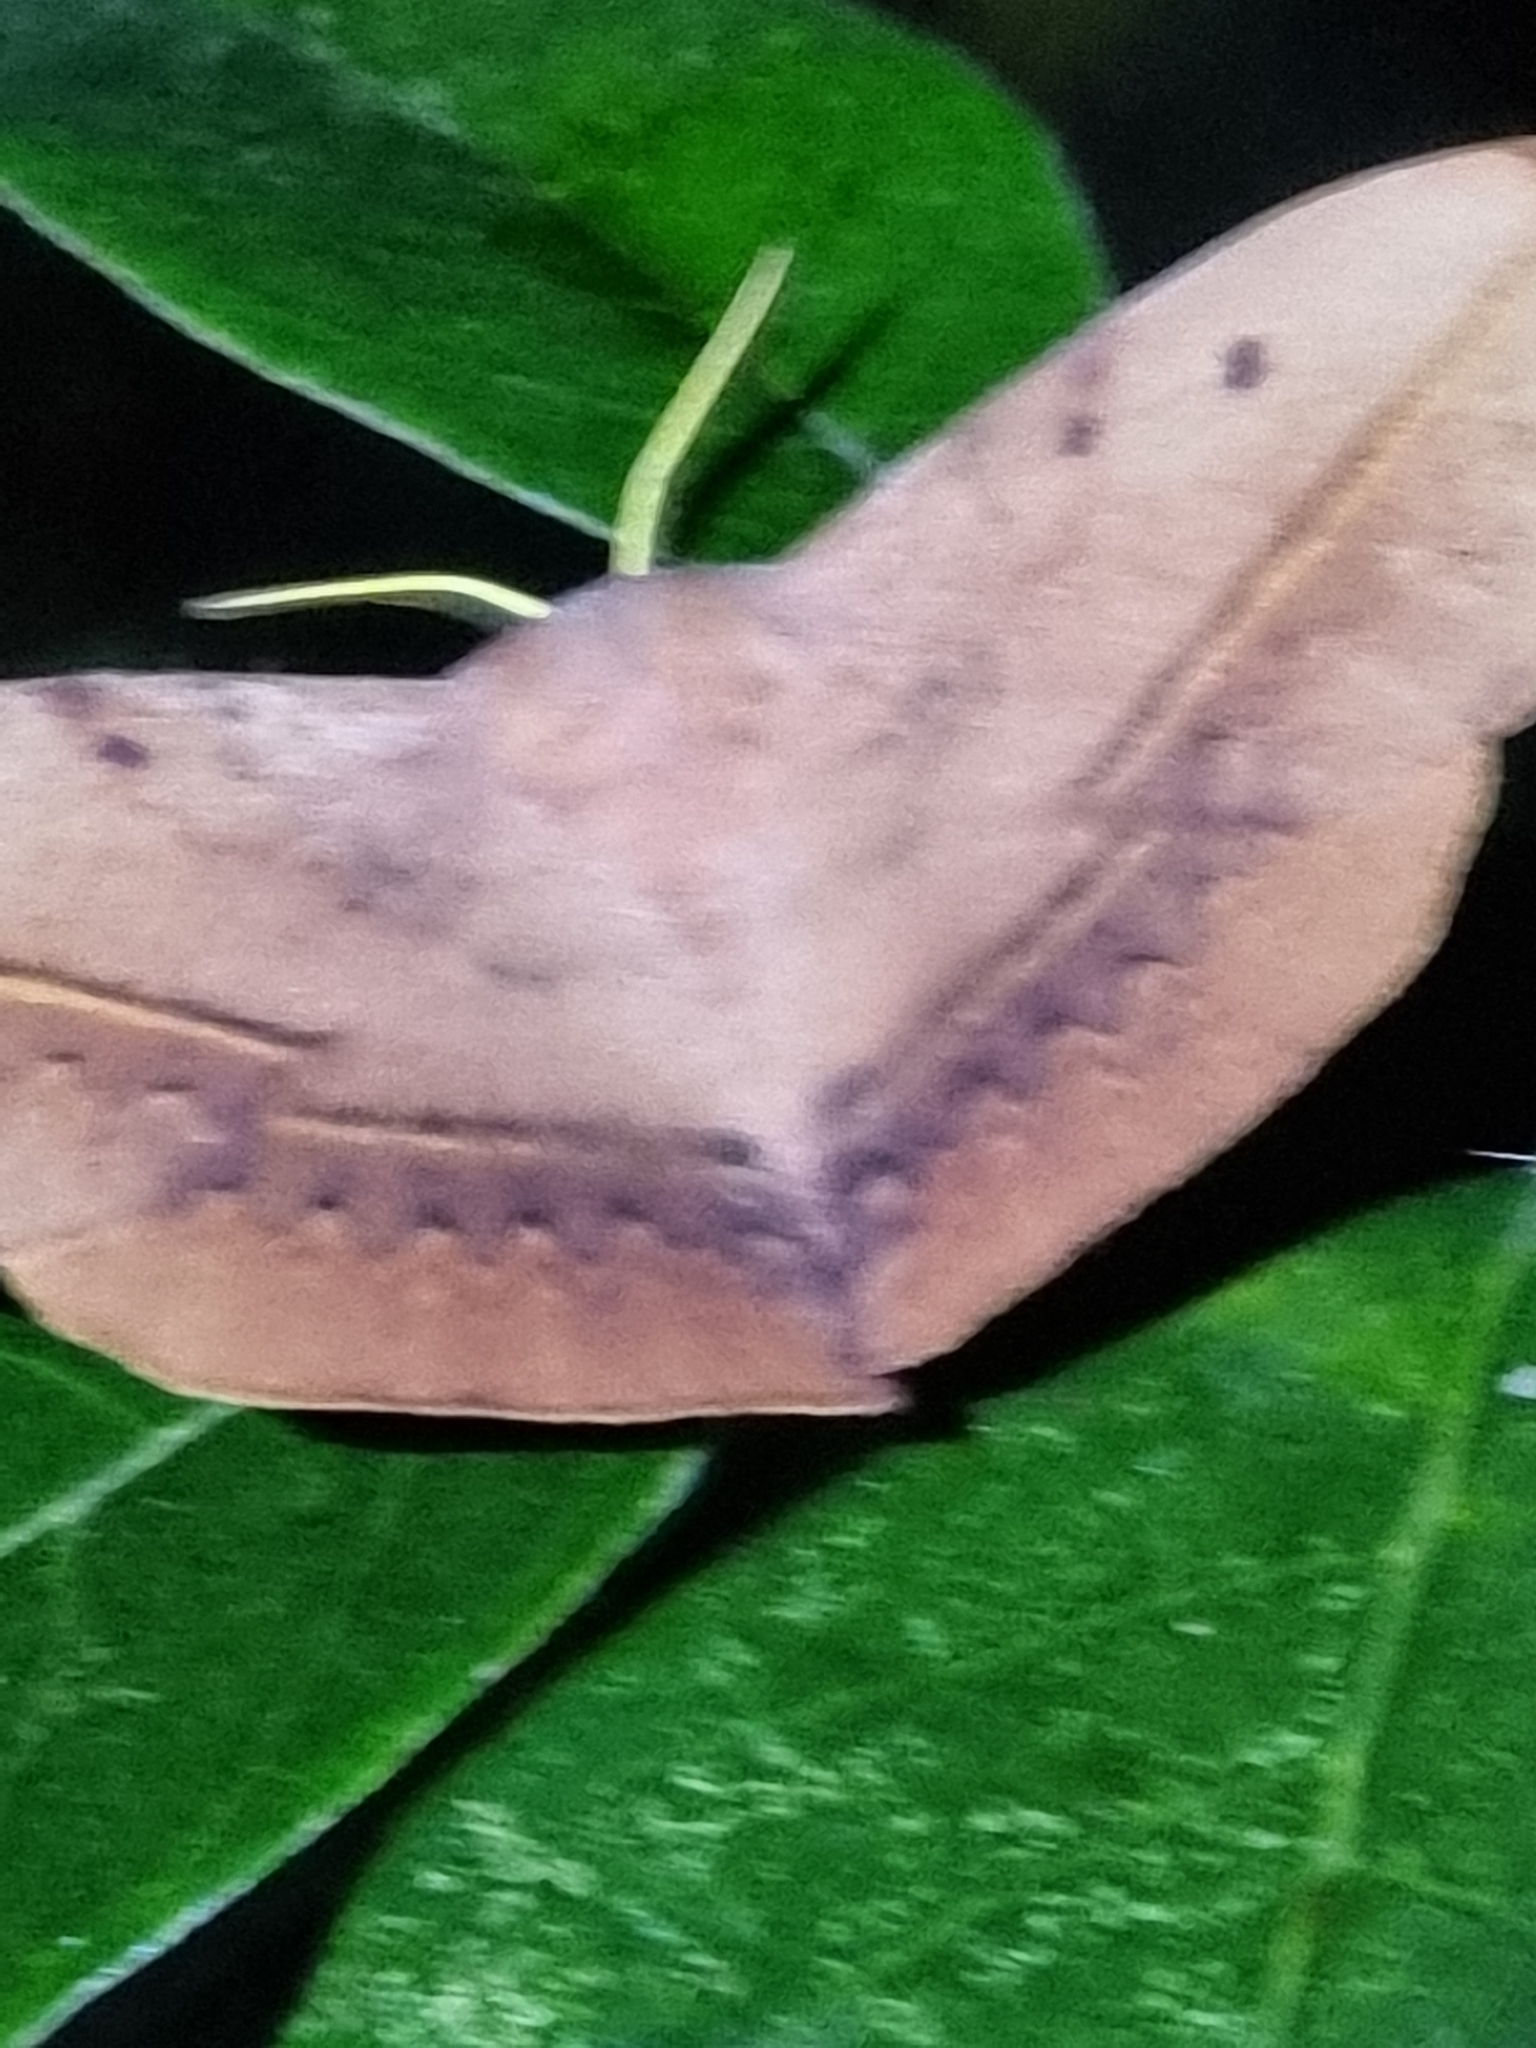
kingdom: Animalia
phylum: Arthropoda
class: Insecta
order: Lepidoptera
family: Anthelidae
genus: Anthela
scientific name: Anthela varia
